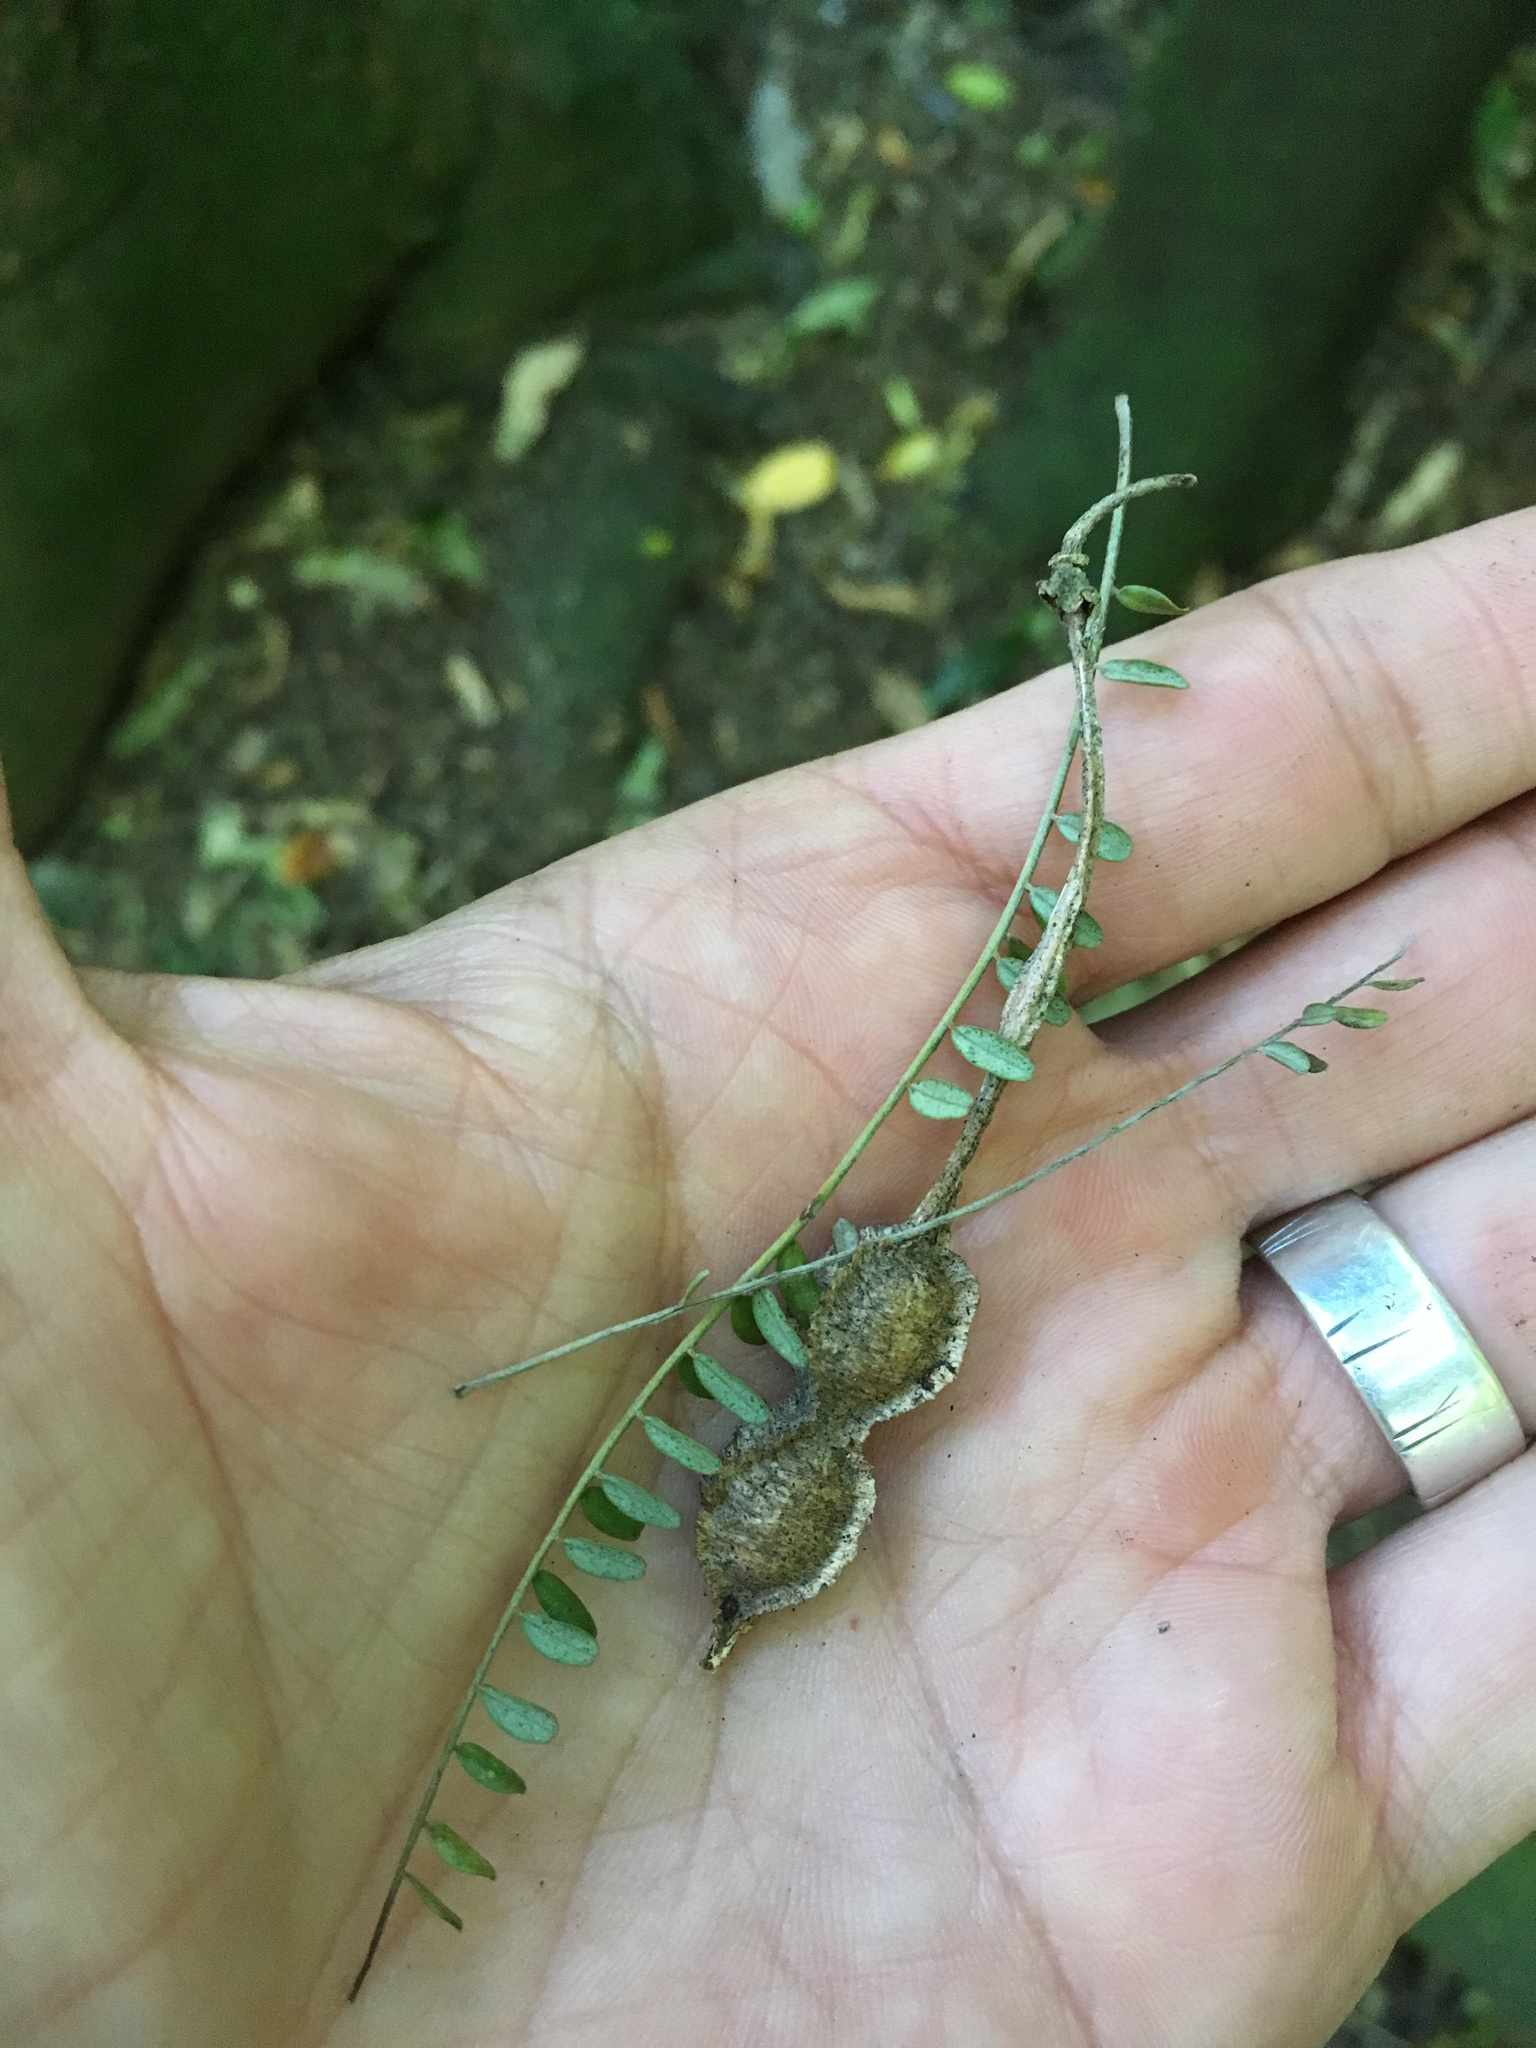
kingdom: Plantae
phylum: Tracheophyta
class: Magnoliopsida
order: Fabales
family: Fabaceae
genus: Sophora
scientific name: Sophora microphylla
